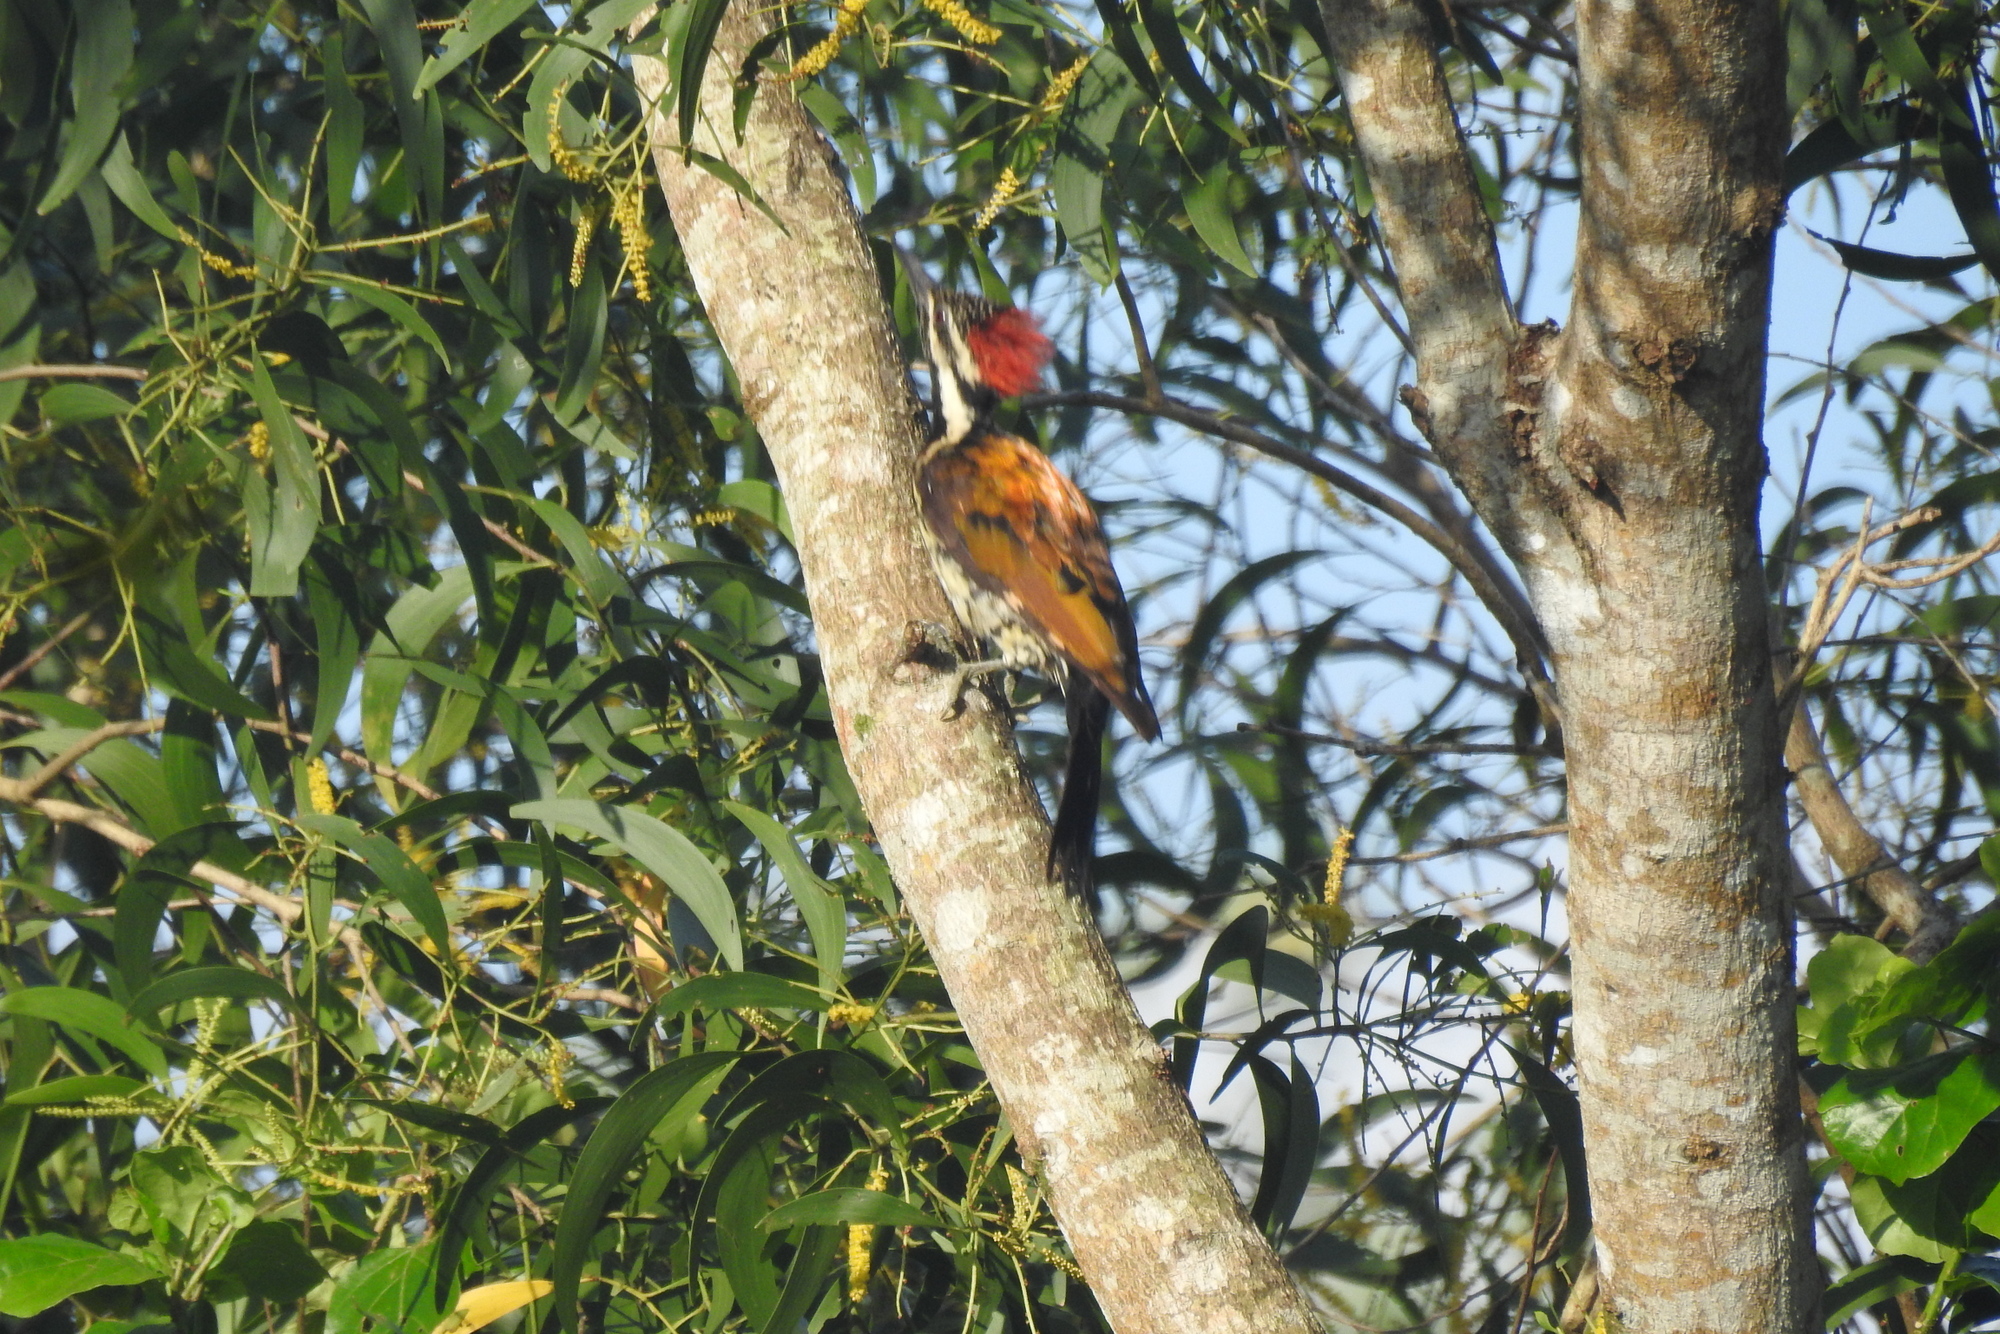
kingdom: Animalia
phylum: Chordata
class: Aves
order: Piciformes
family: Picidae
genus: Dinopium
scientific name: Dinopium benghalense
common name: Black-rumped flameback
